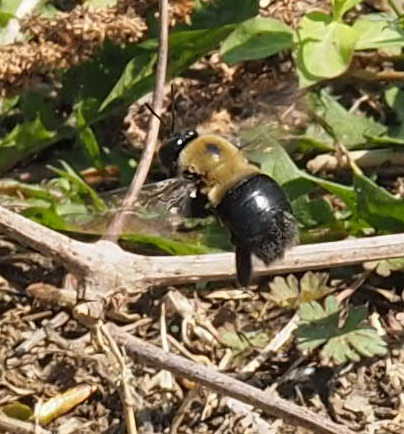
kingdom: Animalia
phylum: Arthropoda
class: Insecta
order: Hymenoptera
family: Apidae
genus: Xylocopa
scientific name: Xylocopa virginica
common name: Carpenter bee
